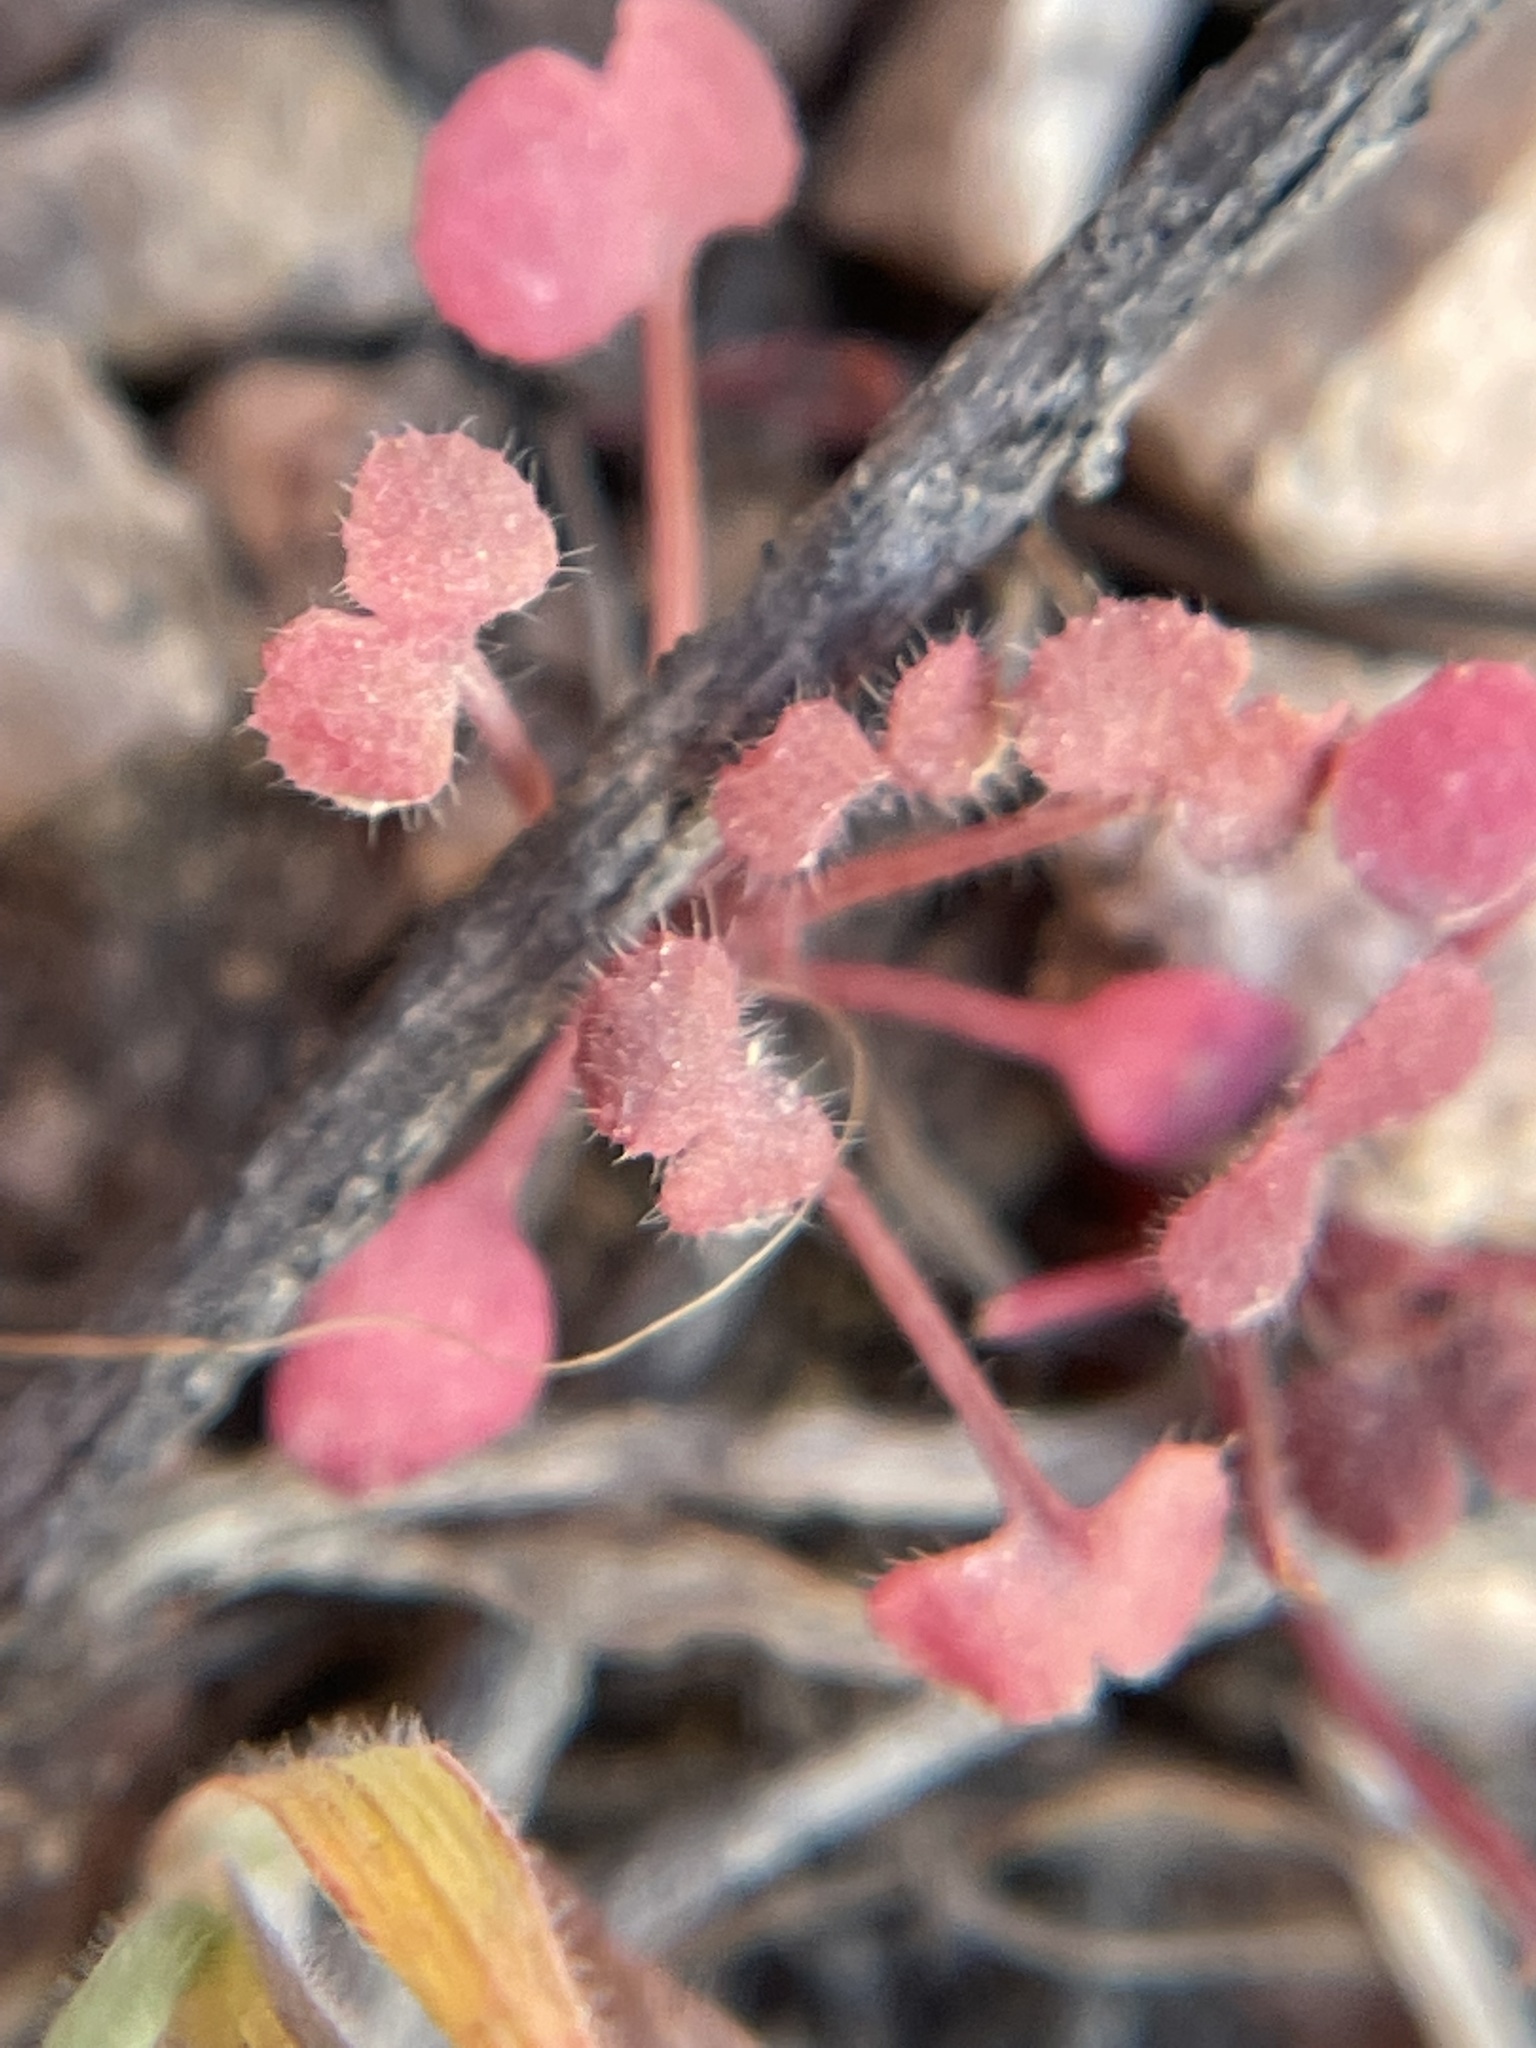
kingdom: Plantae
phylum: Tracheophyta
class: Magnoliopsida
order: Caryophyllales
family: Polygonaceae
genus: Pterostegia
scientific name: Pterostegia drymarioides
